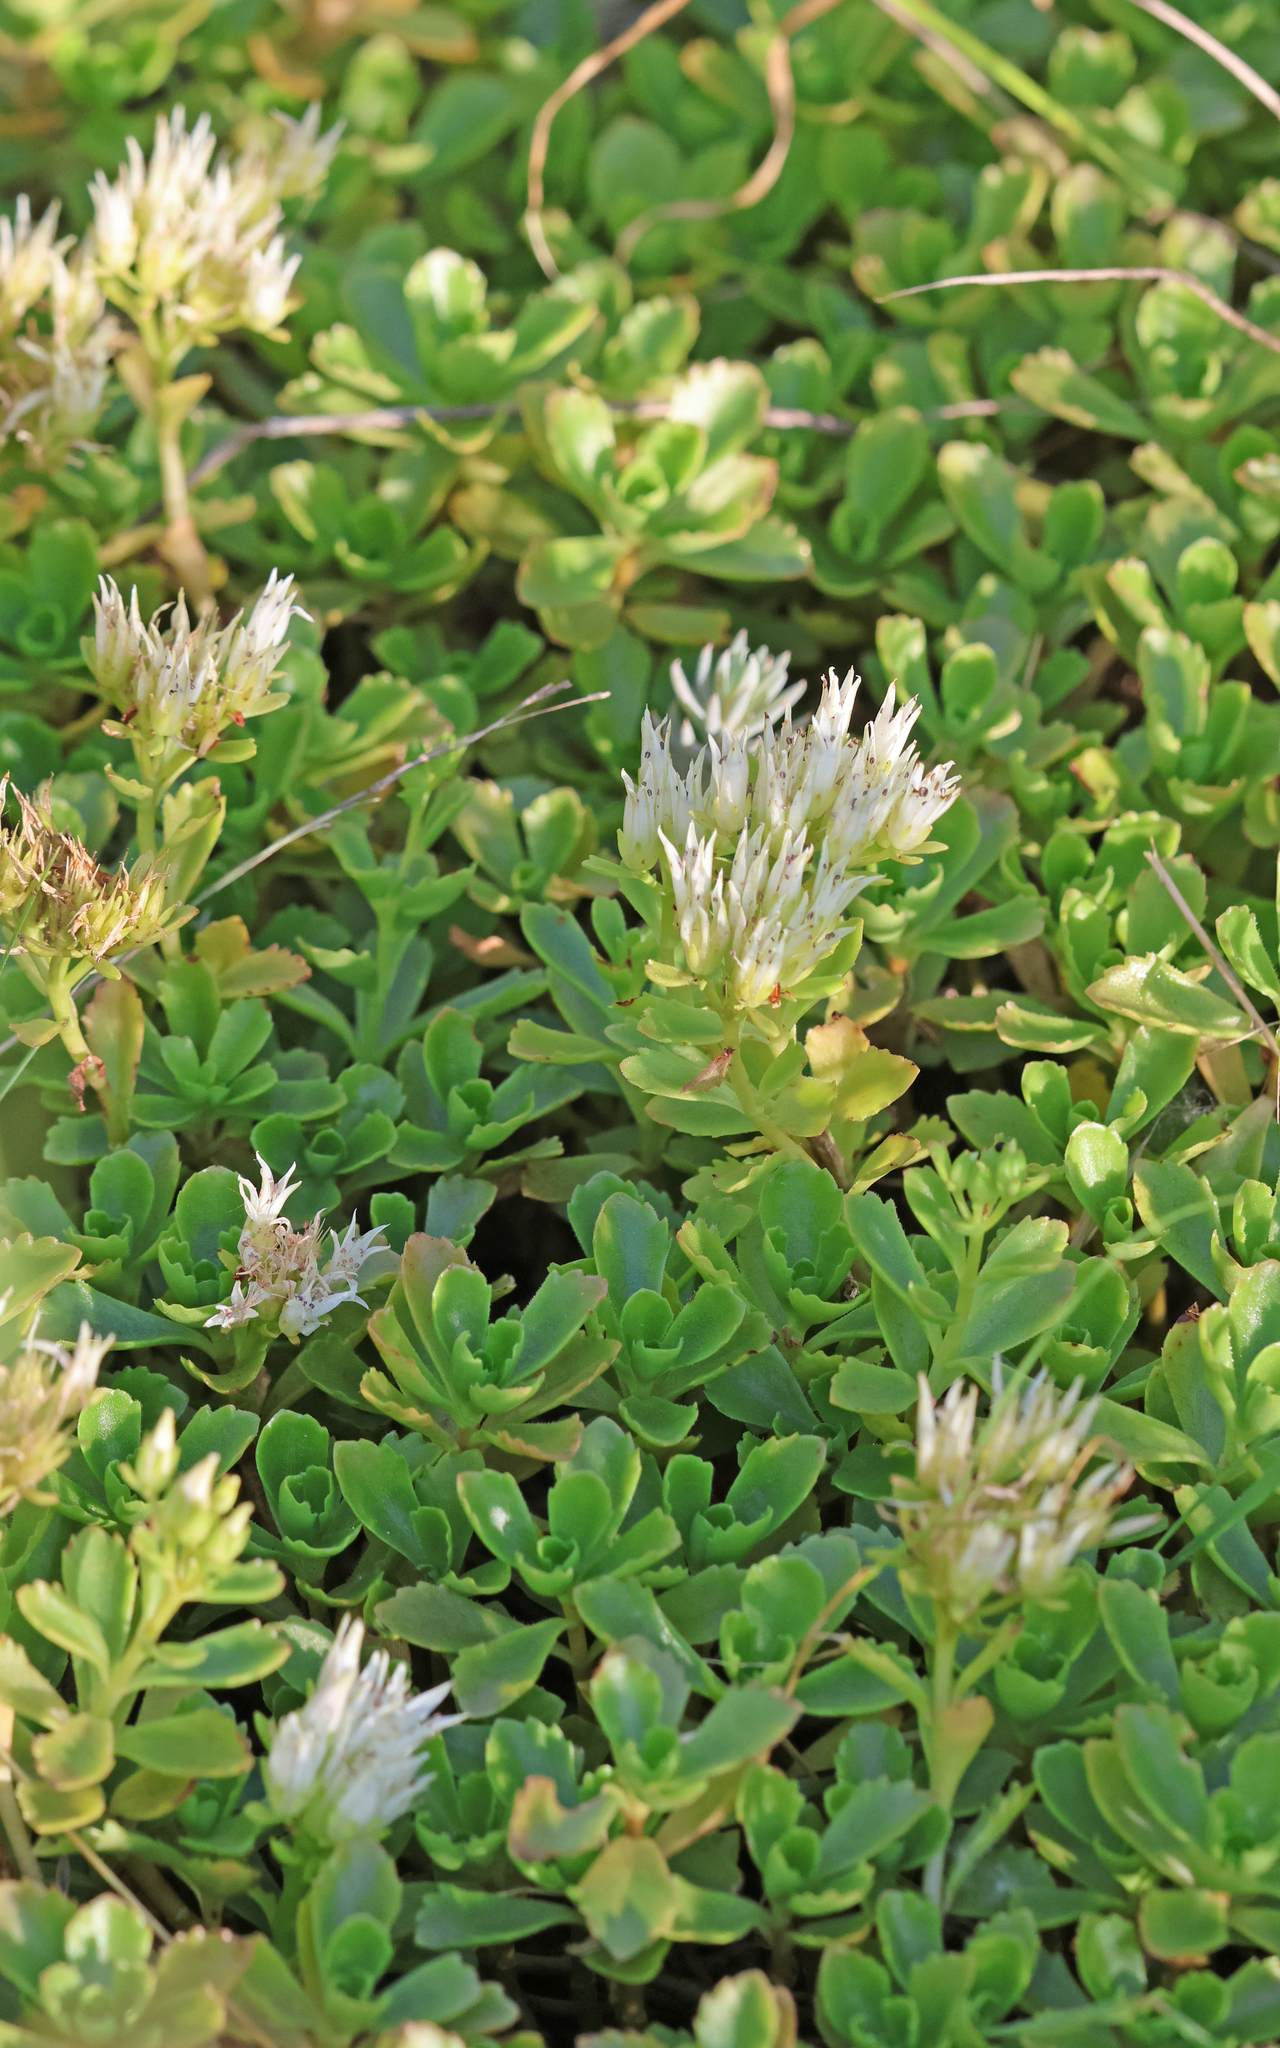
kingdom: Plantae
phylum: Tracheophyta
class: Magnoliopsida
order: Saxifragales
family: Crassulaceae
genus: Phedimus
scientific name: Phedimus spurius
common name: Caucasian stonecrop
